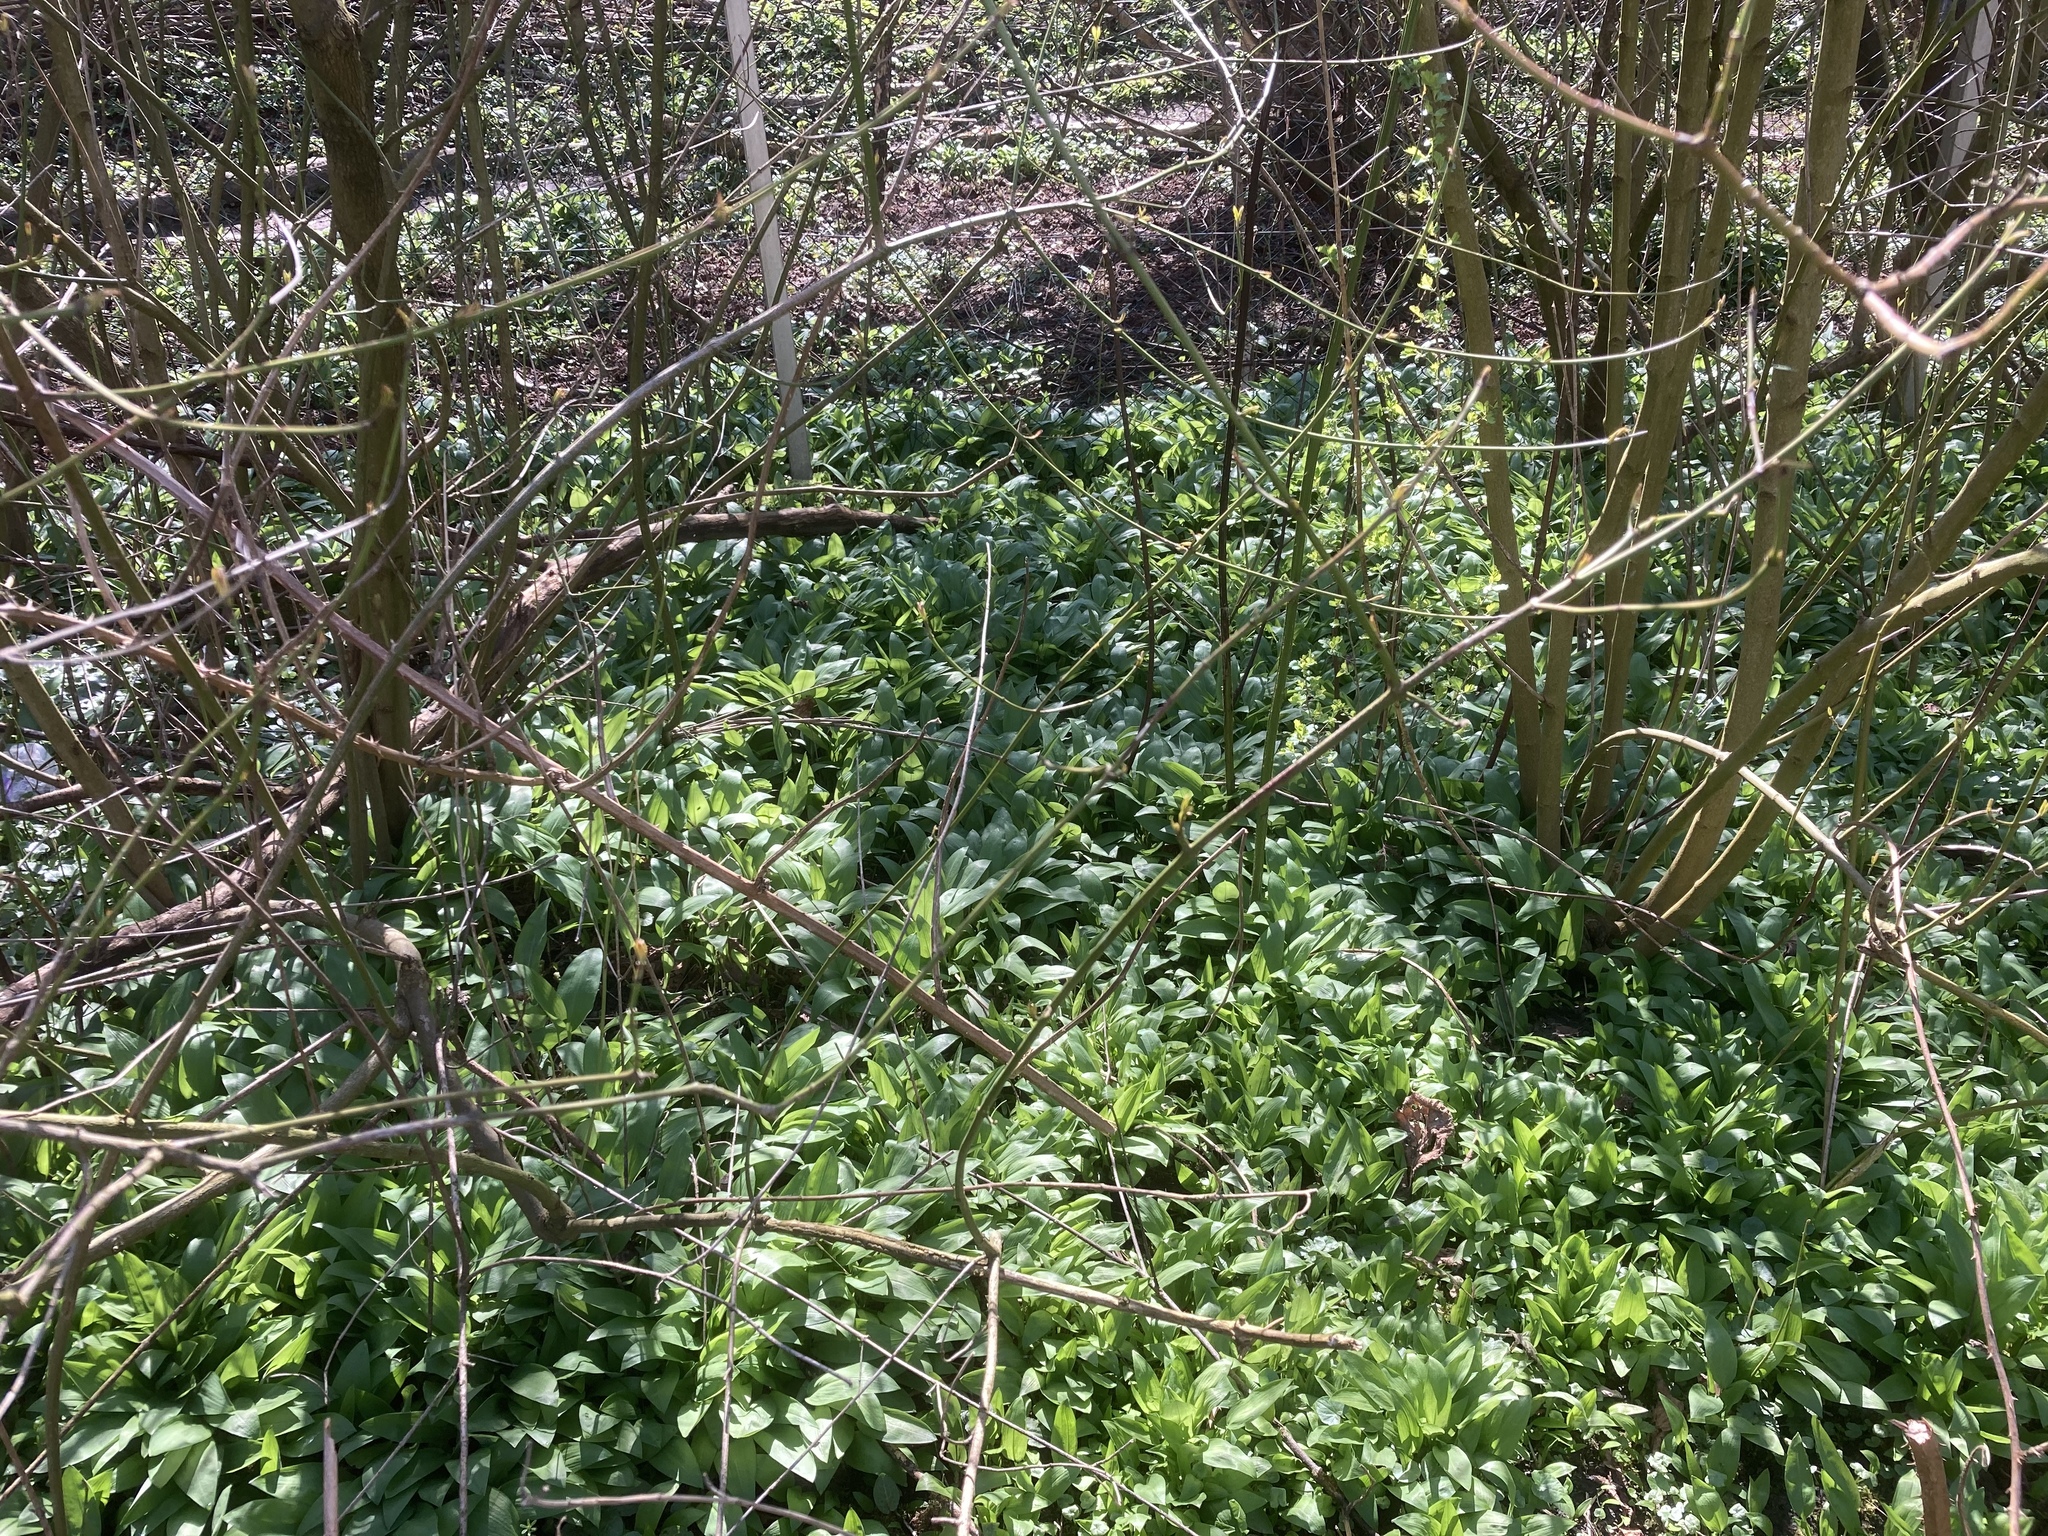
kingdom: Plantae
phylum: Tracheophyta
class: Liliopsida
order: Asparagales
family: Amaryllidaceae
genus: Allium
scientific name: Allium ursinum
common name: Ramsons
